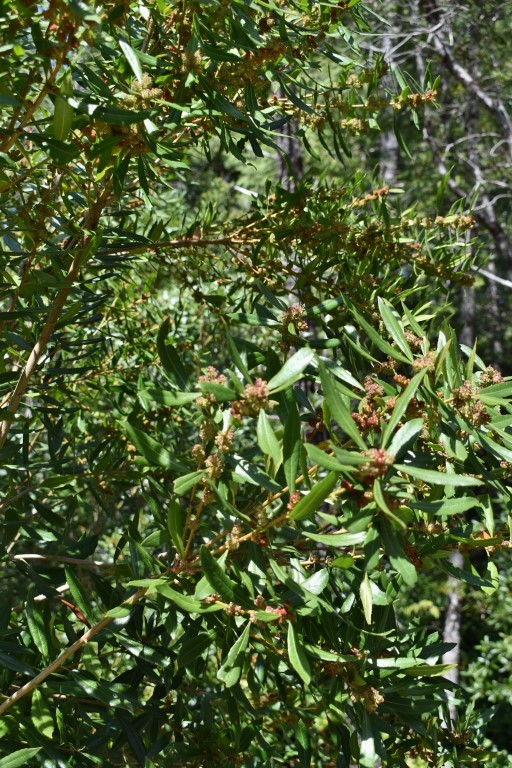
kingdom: Plantae
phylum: Tracheophyta
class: Magnoliopsida
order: Fagales
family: Myricaceae
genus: Morella
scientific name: Morella californica
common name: California wax-myrtle
